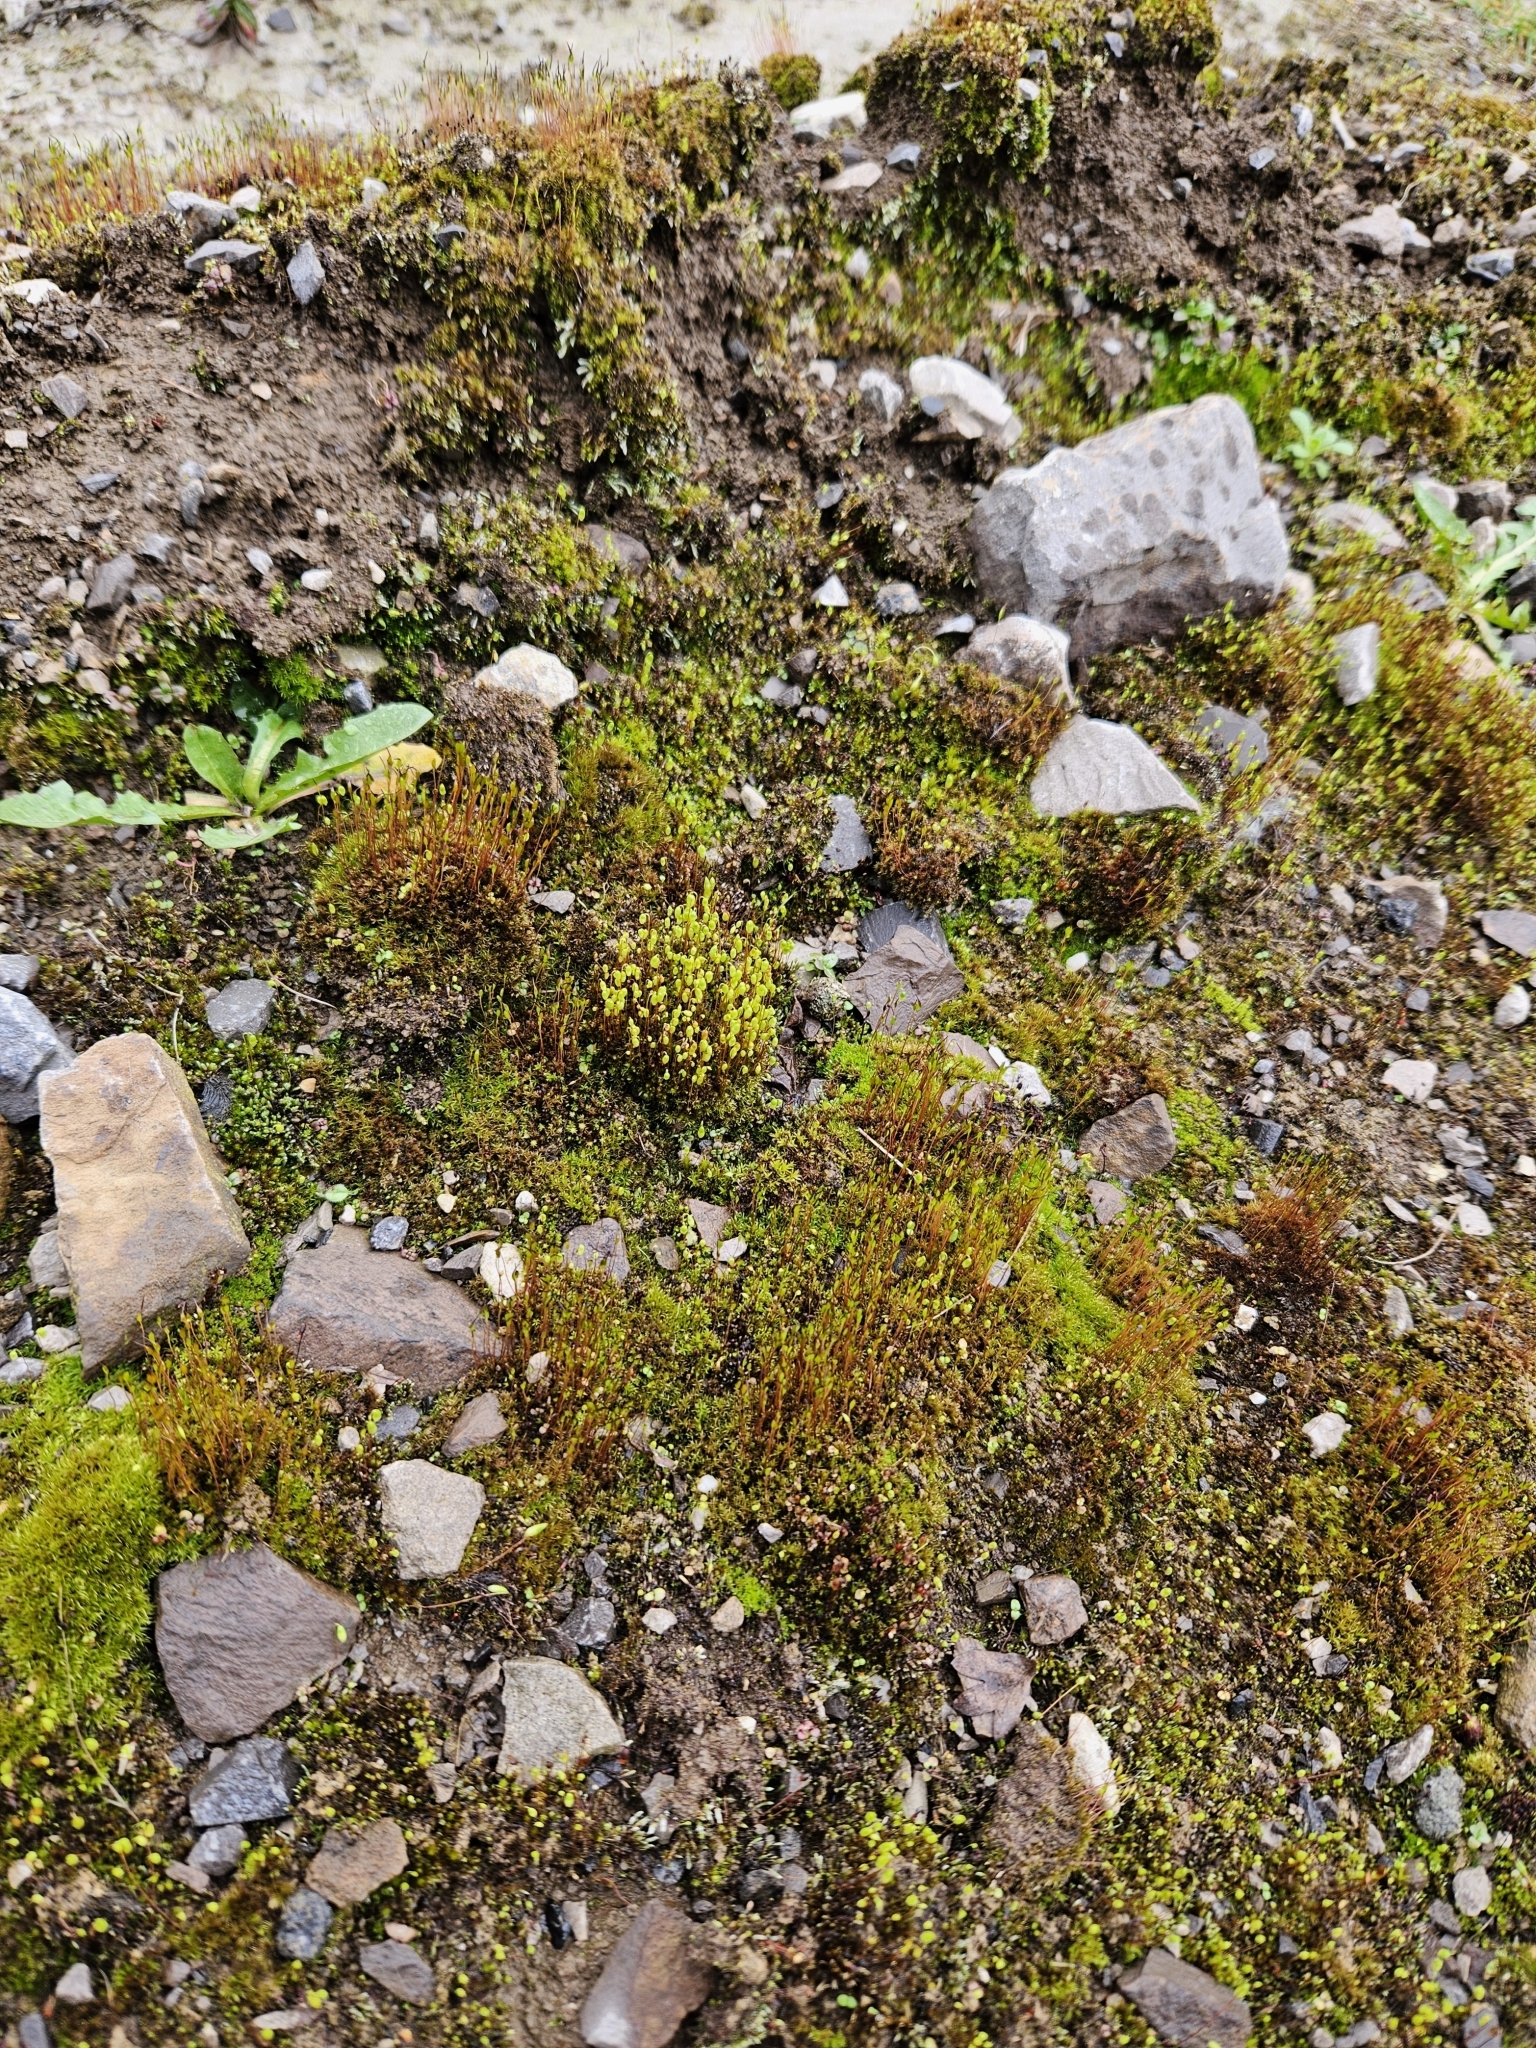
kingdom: Plantae
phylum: Bryophyta
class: Bryopsida
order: Bryales
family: Bryaceae
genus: Gemmabryum
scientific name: Gemmabryum caespiticium
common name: Handbell moss
